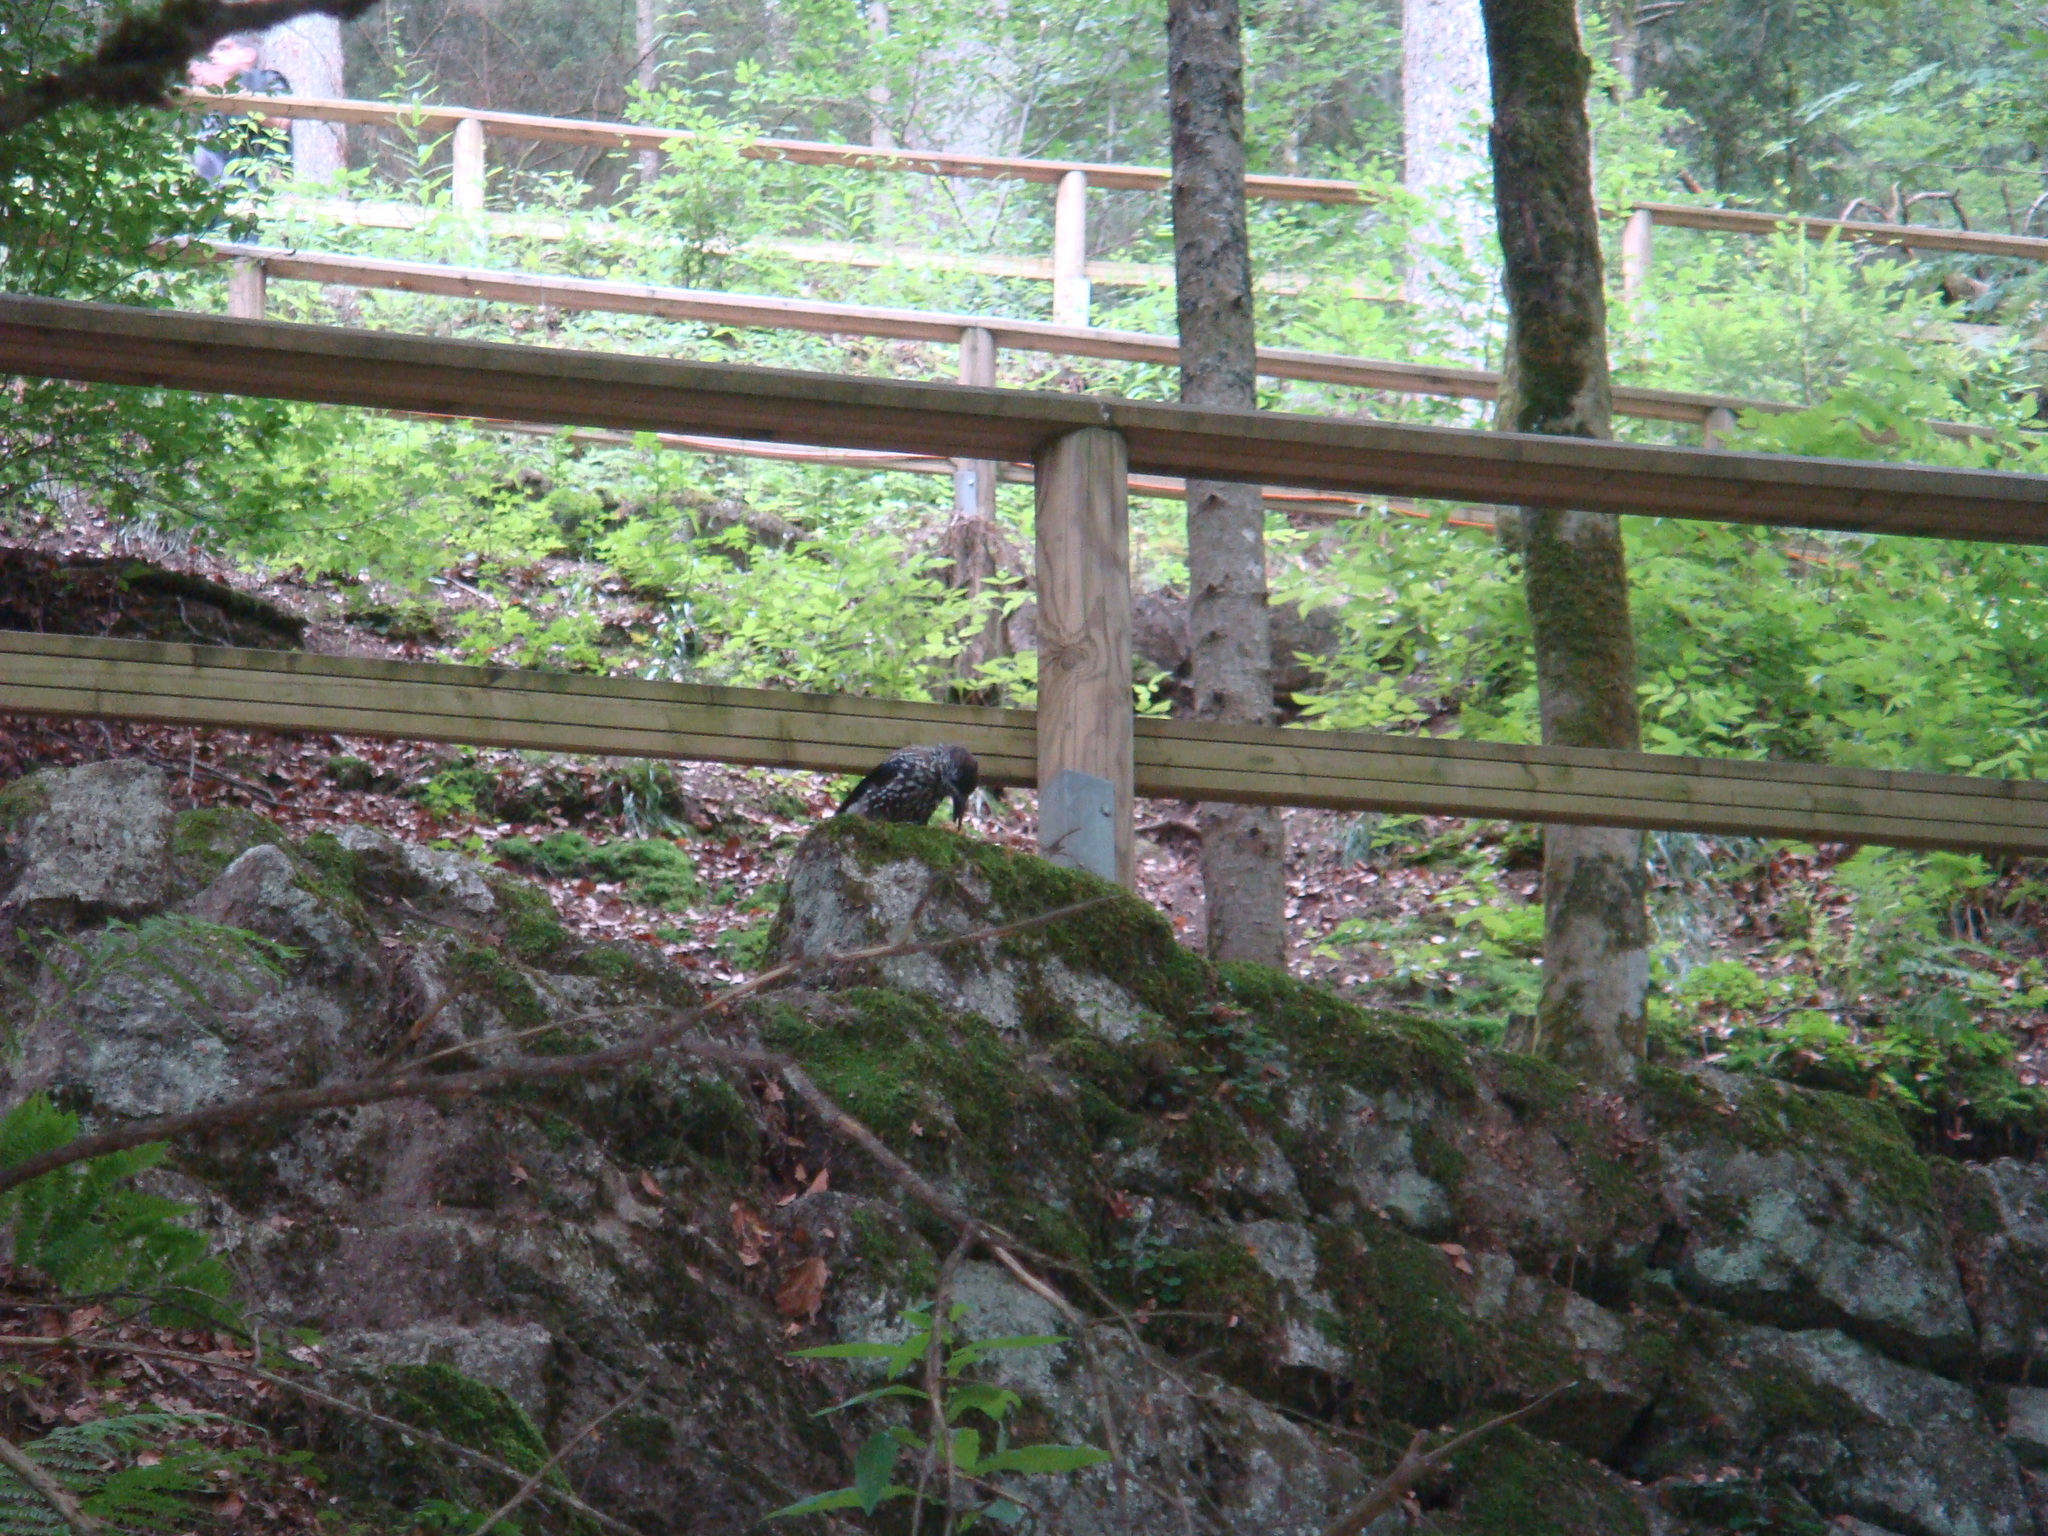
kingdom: Animalia
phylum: Chordata
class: Aves
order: Passeriformes
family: Corvidae
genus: Nucifraga
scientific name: Nucifraga caryocatactes
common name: Spotted nutcracker
